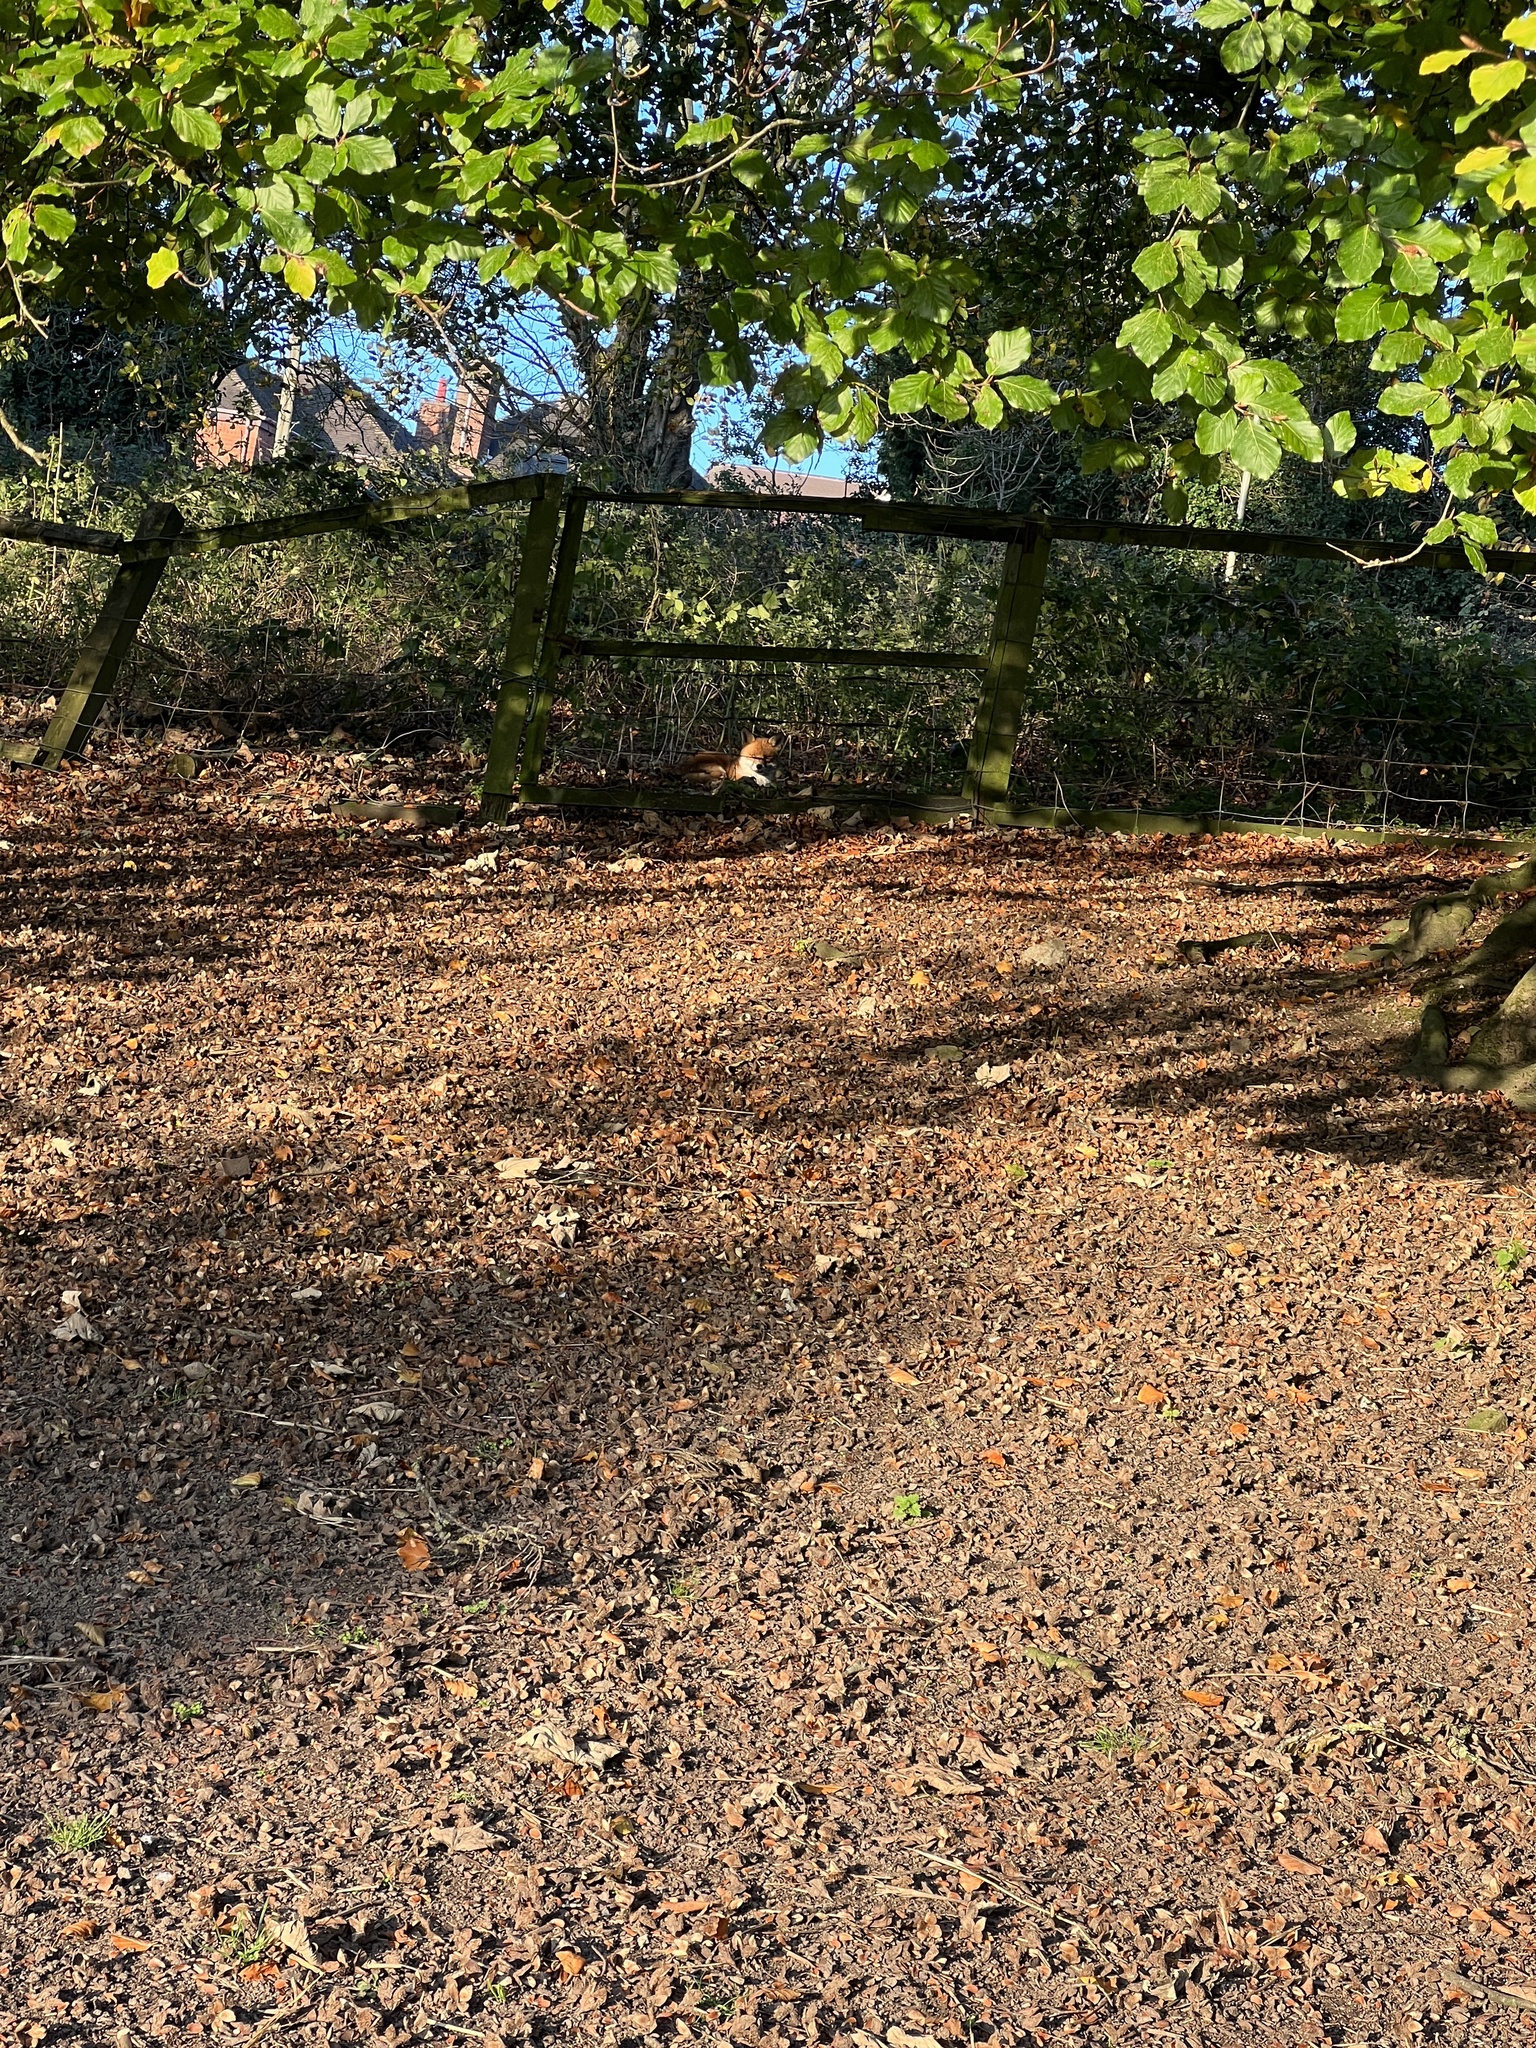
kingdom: Animalia
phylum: Chordata
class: Mammalia
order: Carnivora
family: Canidae
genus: Vulpes
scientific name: Vulpes vulpes
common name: Red fox
